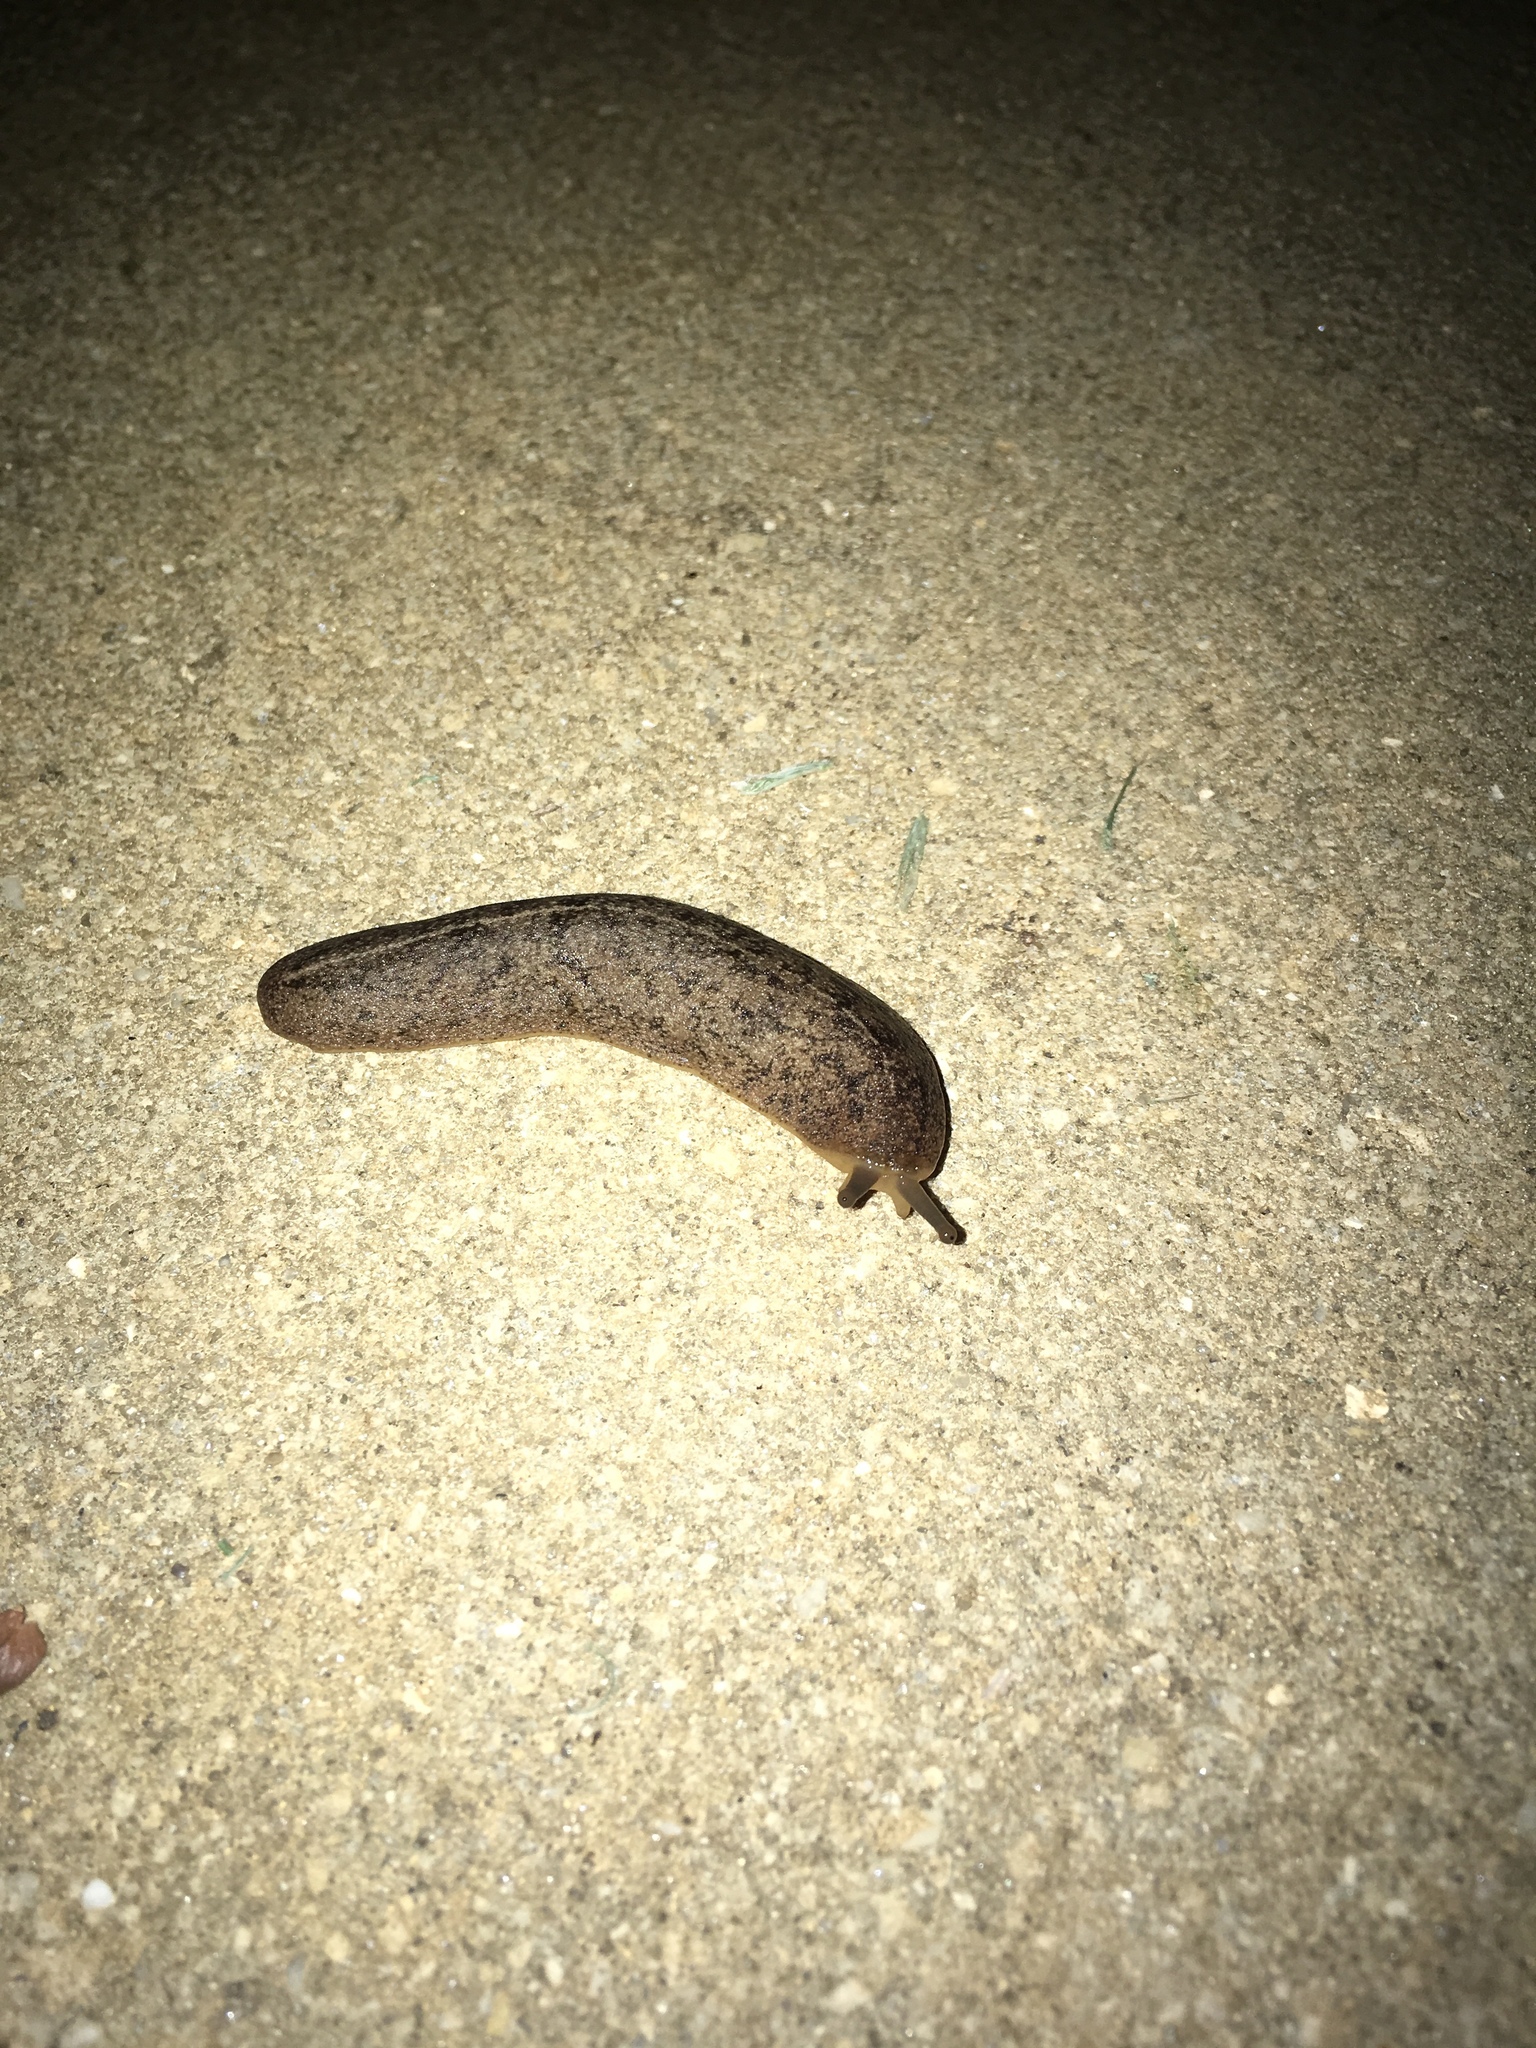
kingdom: Animalia
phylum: Mollusca
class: Gastropoda
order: Systellommatophora
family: Veronicellidae
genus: Leidyula
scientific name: Leidyula floridana
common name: Florida leatherleaf
